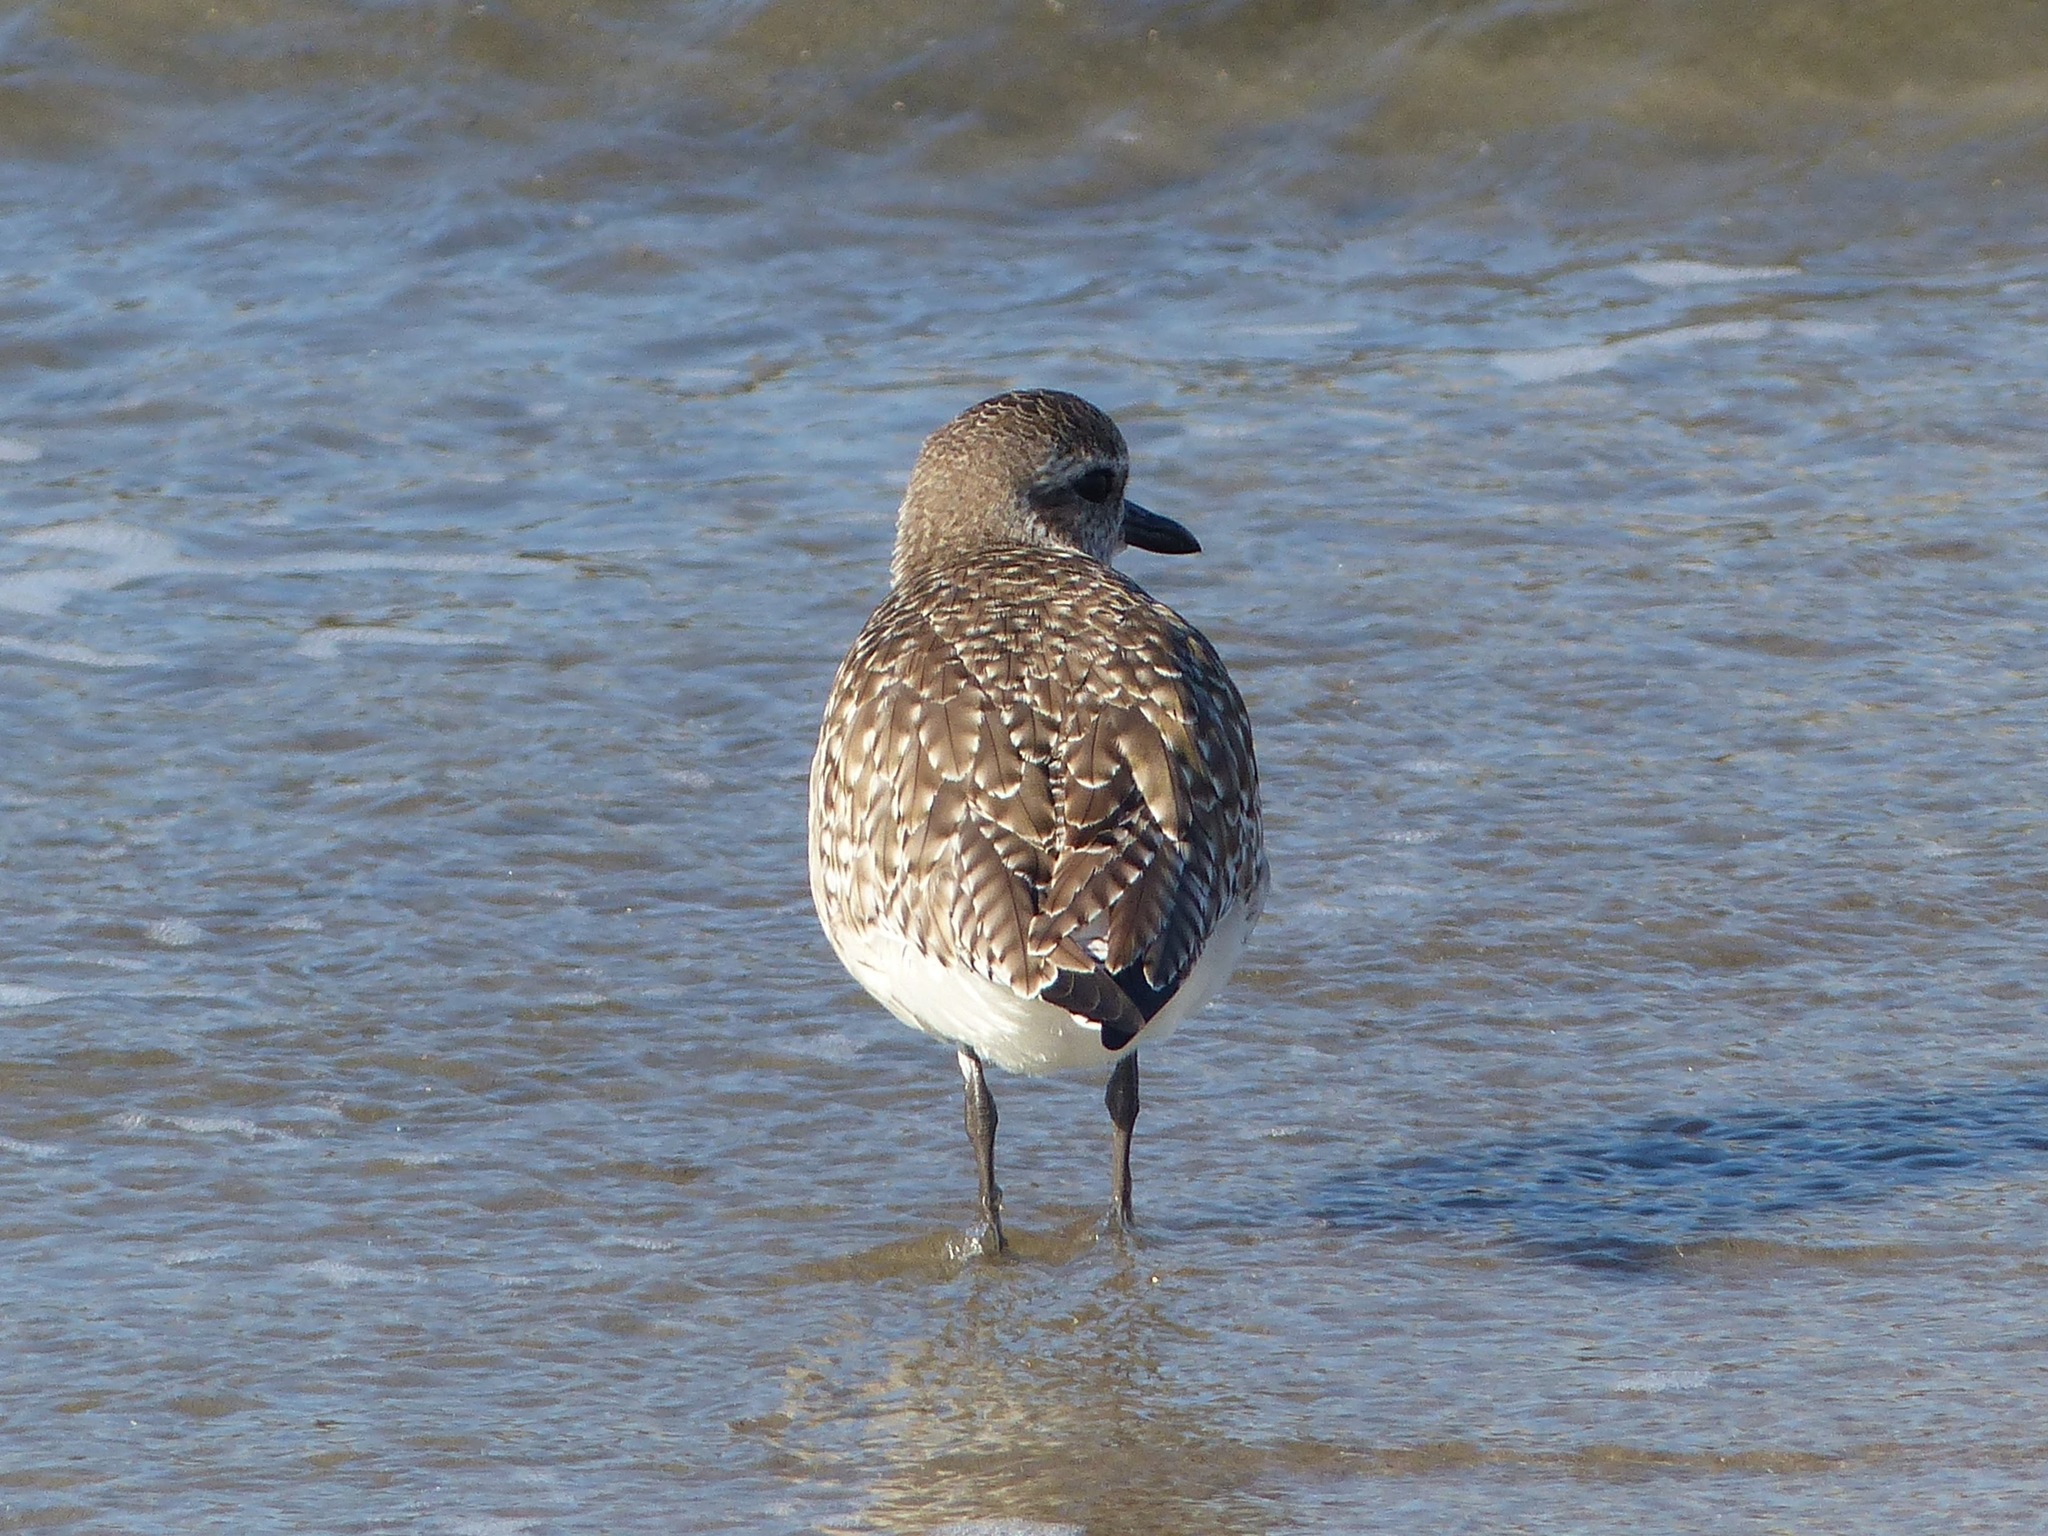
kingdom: Animalia
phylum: Chordata
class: Aves
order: Charadriiformes
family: Charadriidae
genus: Pluvialis
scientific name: Pluvialis squatarola
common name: Grey plover
